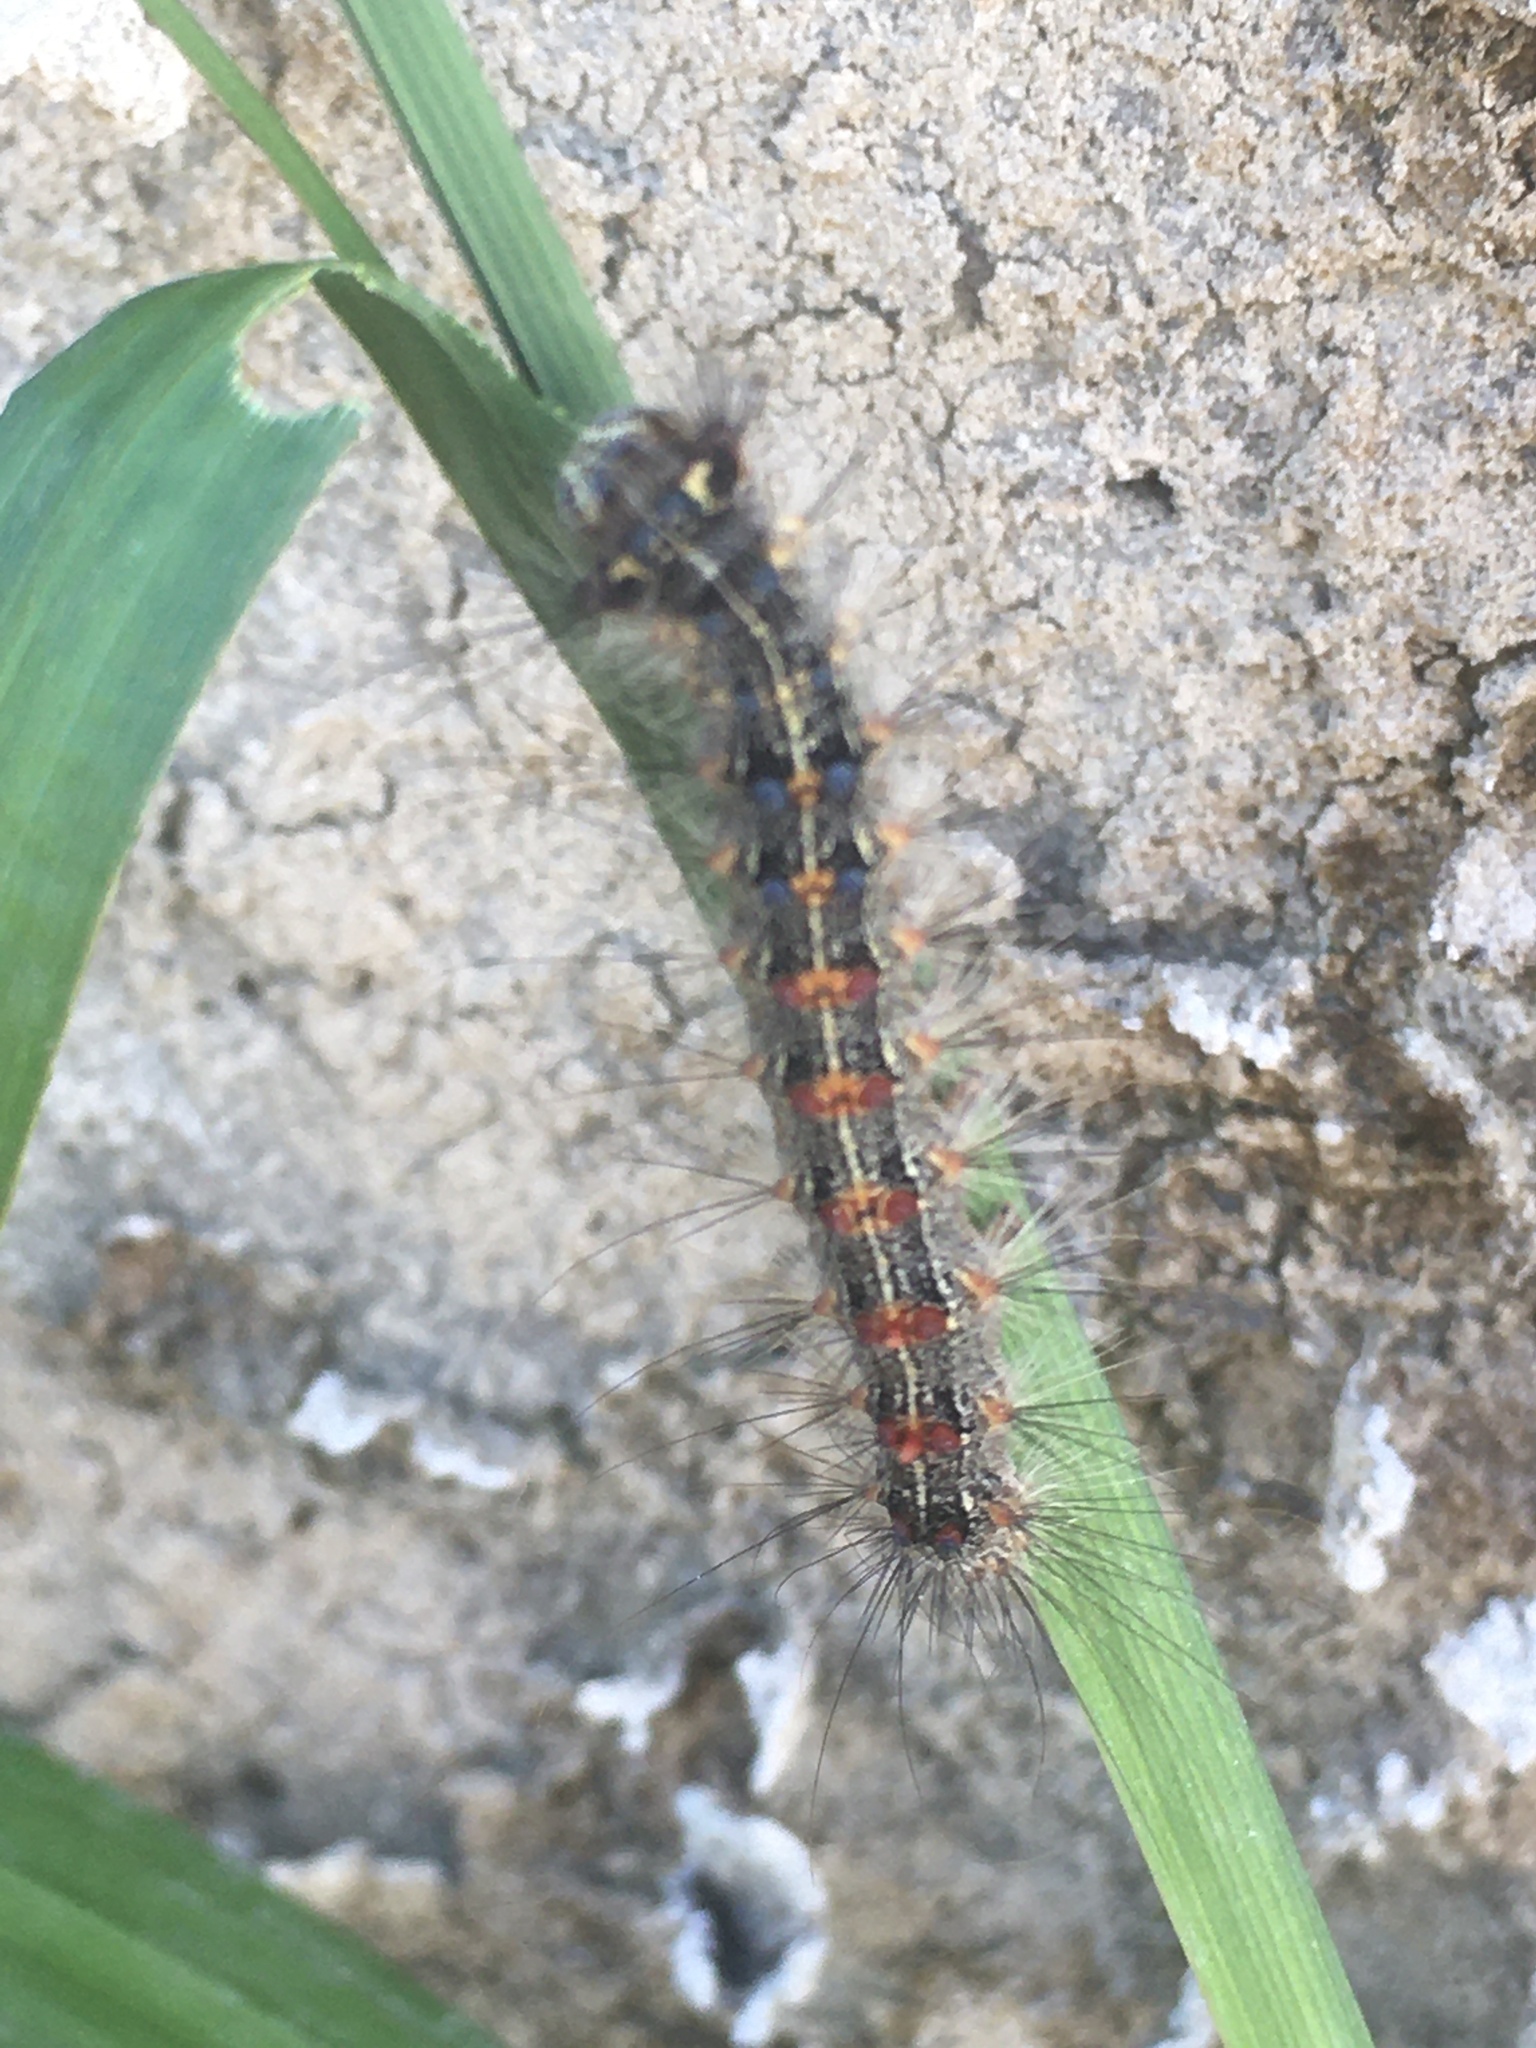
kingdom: Animalia
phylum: Arthropoda
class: Insecta
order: Lepidoptera
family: Erebidae
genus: Lymantria
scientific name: Lymantria dispar
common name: Gypsy moth
